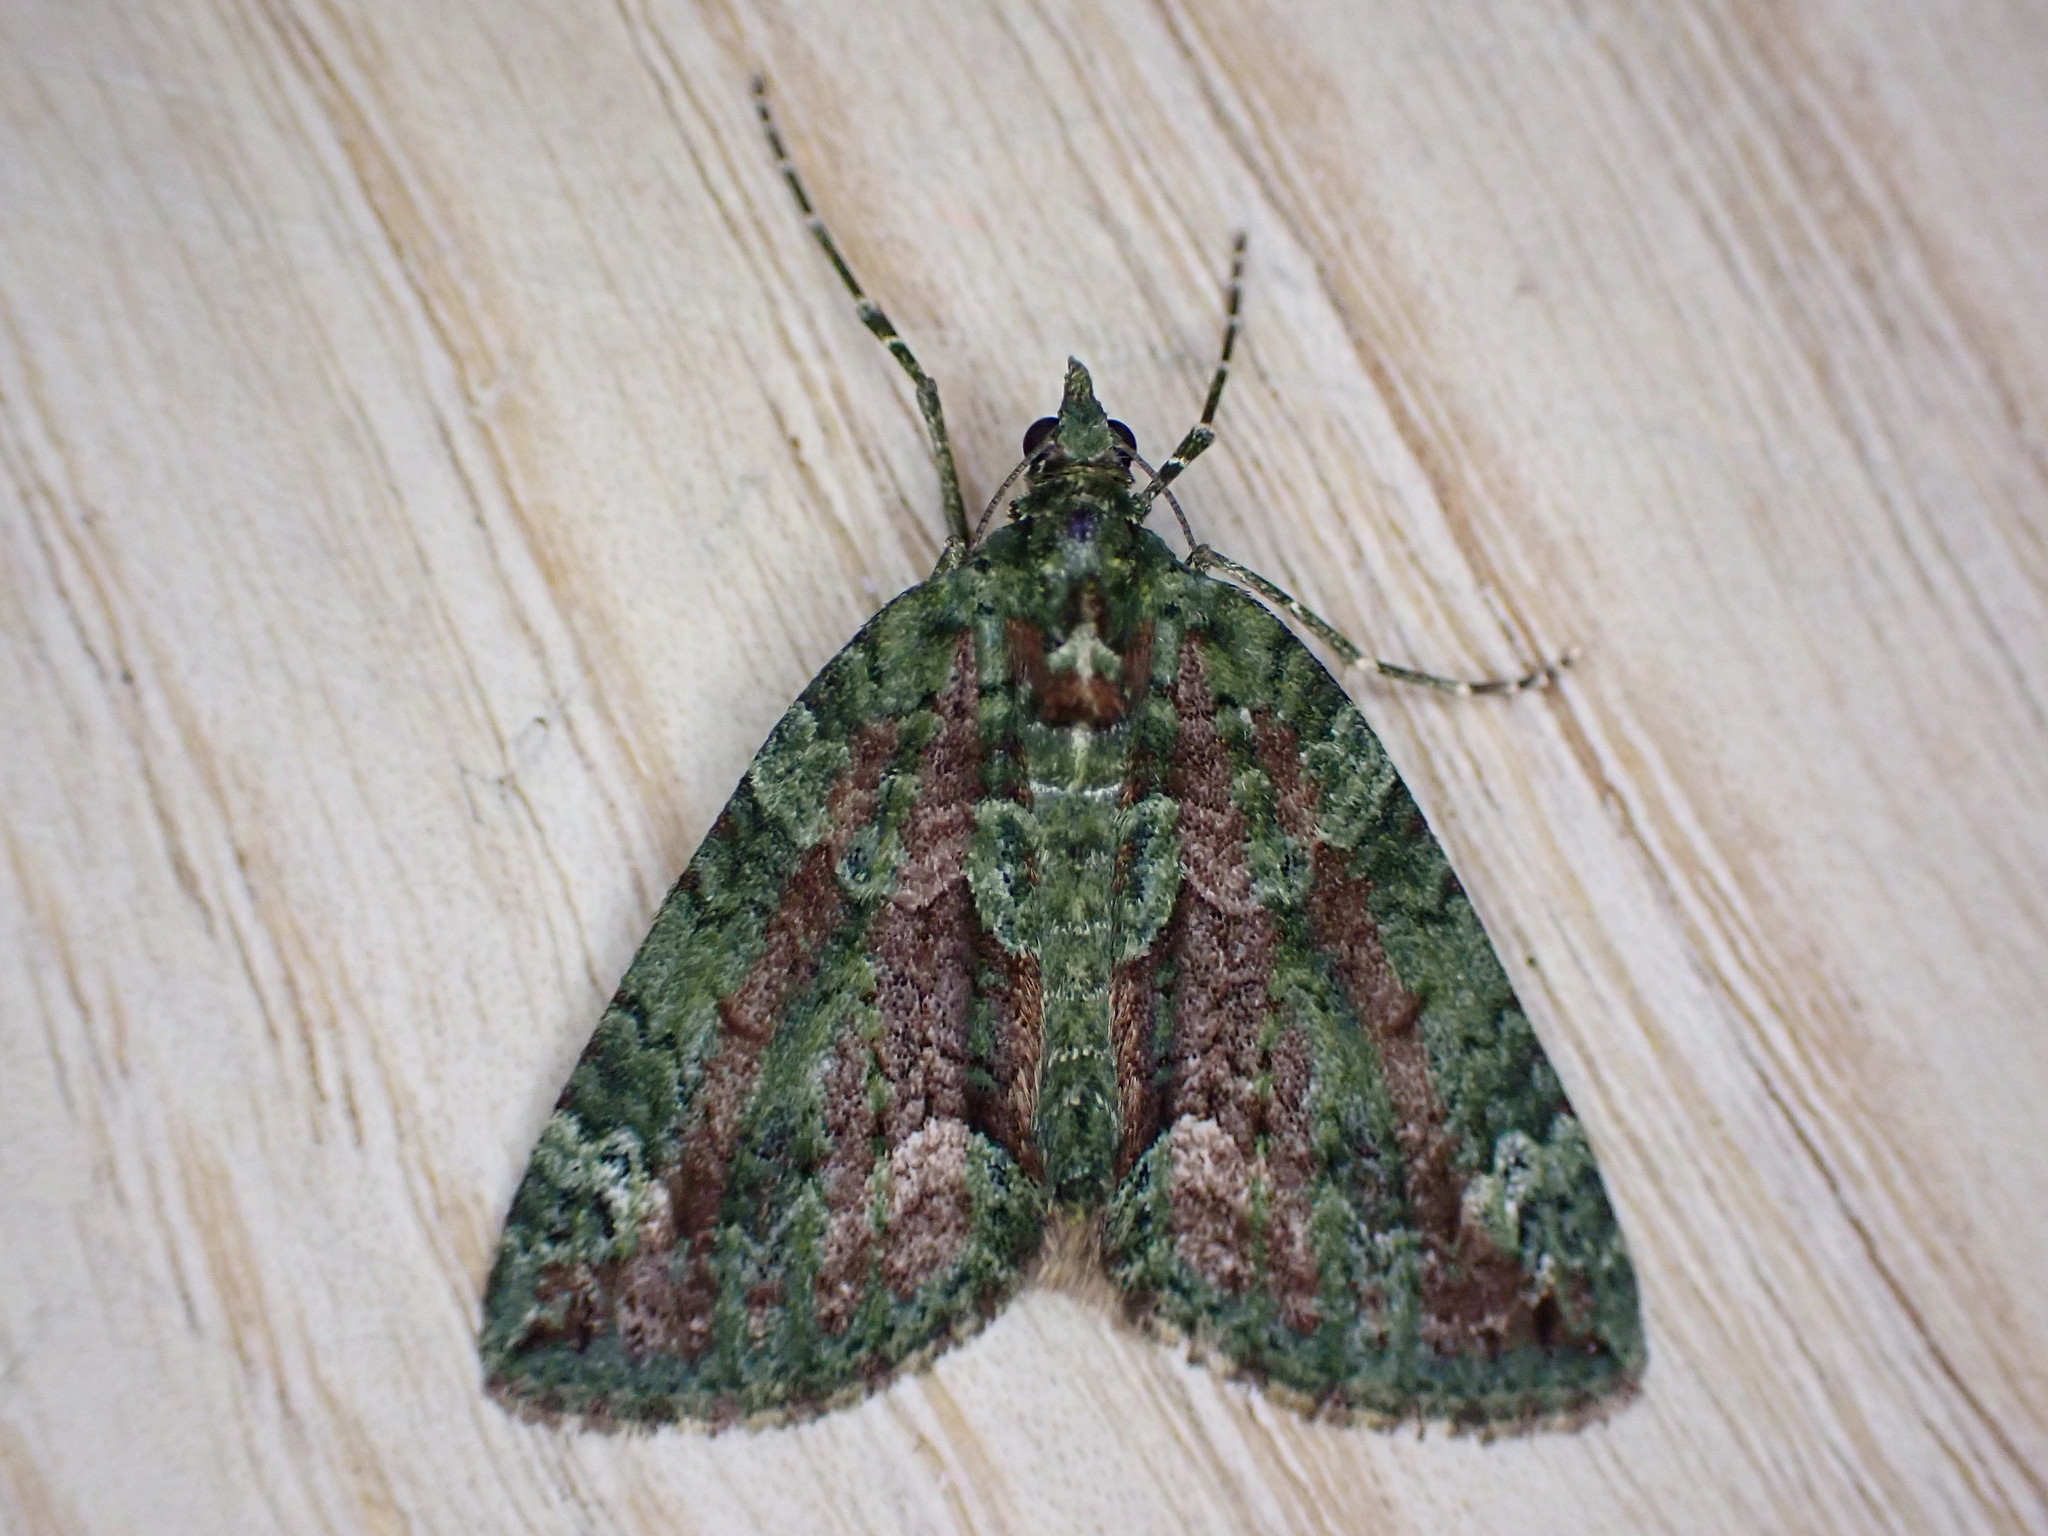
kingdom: Animalia
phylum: Arthropoda
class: Insecta
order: Lepidoptera
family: Geometridae
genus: Chloroclysta
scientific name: Chloroclysta siterata
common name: Red-green carpet
